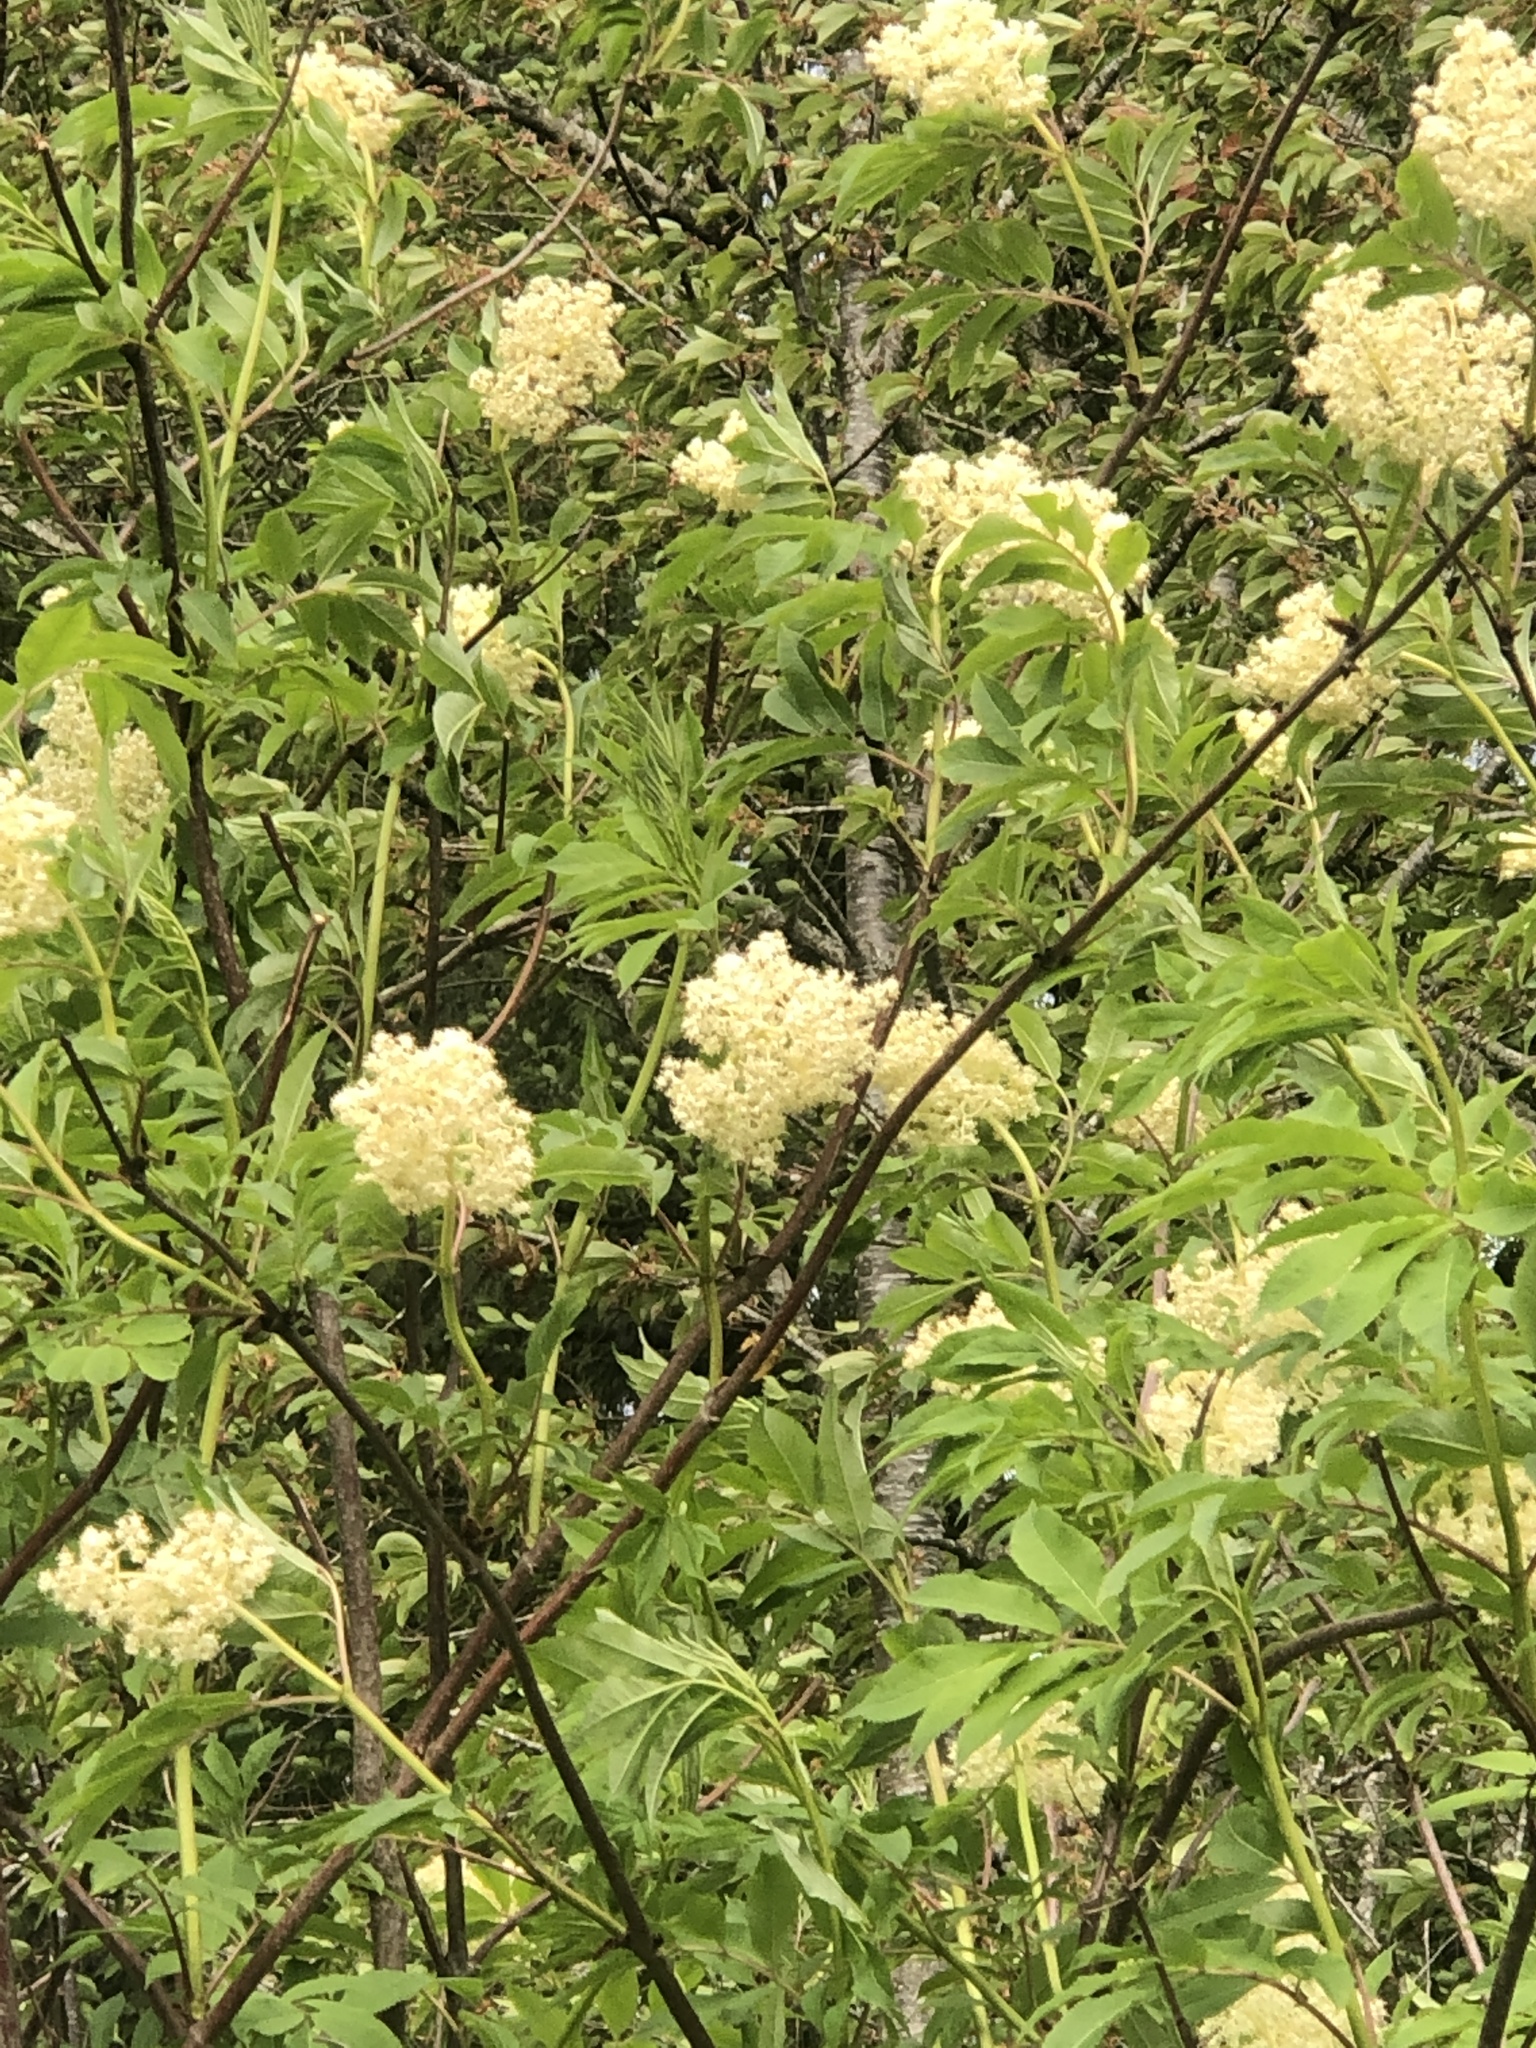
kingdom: Plantae
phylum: Tracheophyta
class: Magnoliopsida
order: Dipsacales
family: Viburnaceae
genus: Sambucus
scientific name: Sambucus racemosa
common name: Red-berried elder
